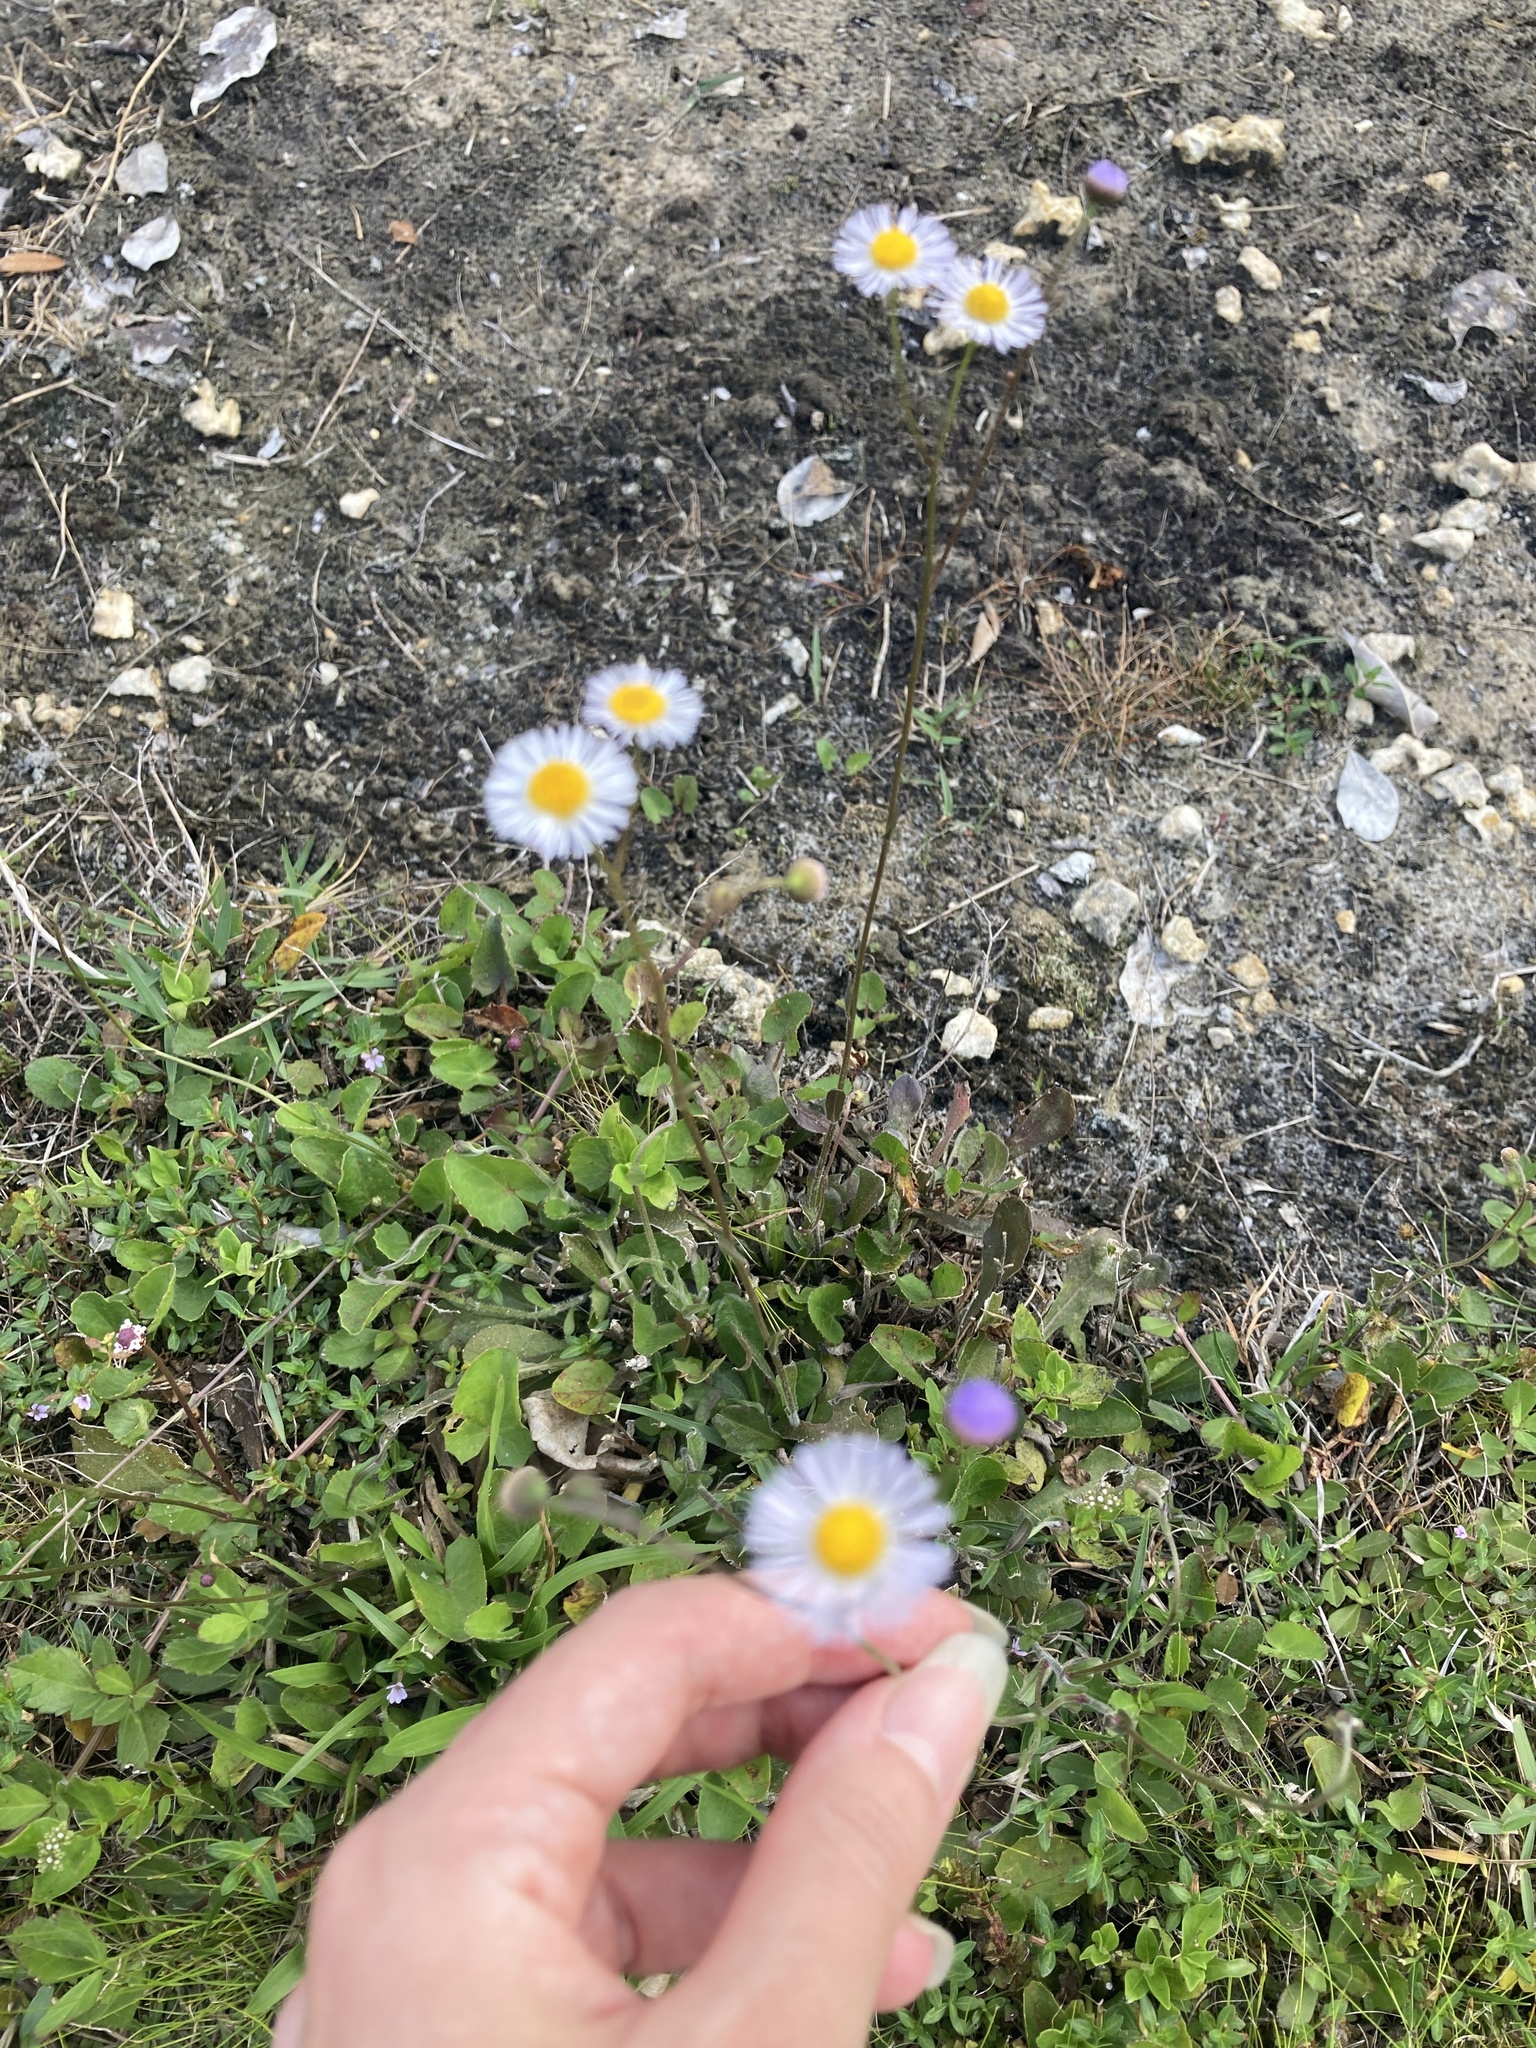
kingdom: Plantae
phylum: Tracheophyta
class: Magnoliopsida
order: Asterales
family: Asteraceae
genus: Erigeron
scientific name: Erigeron quercifolius
